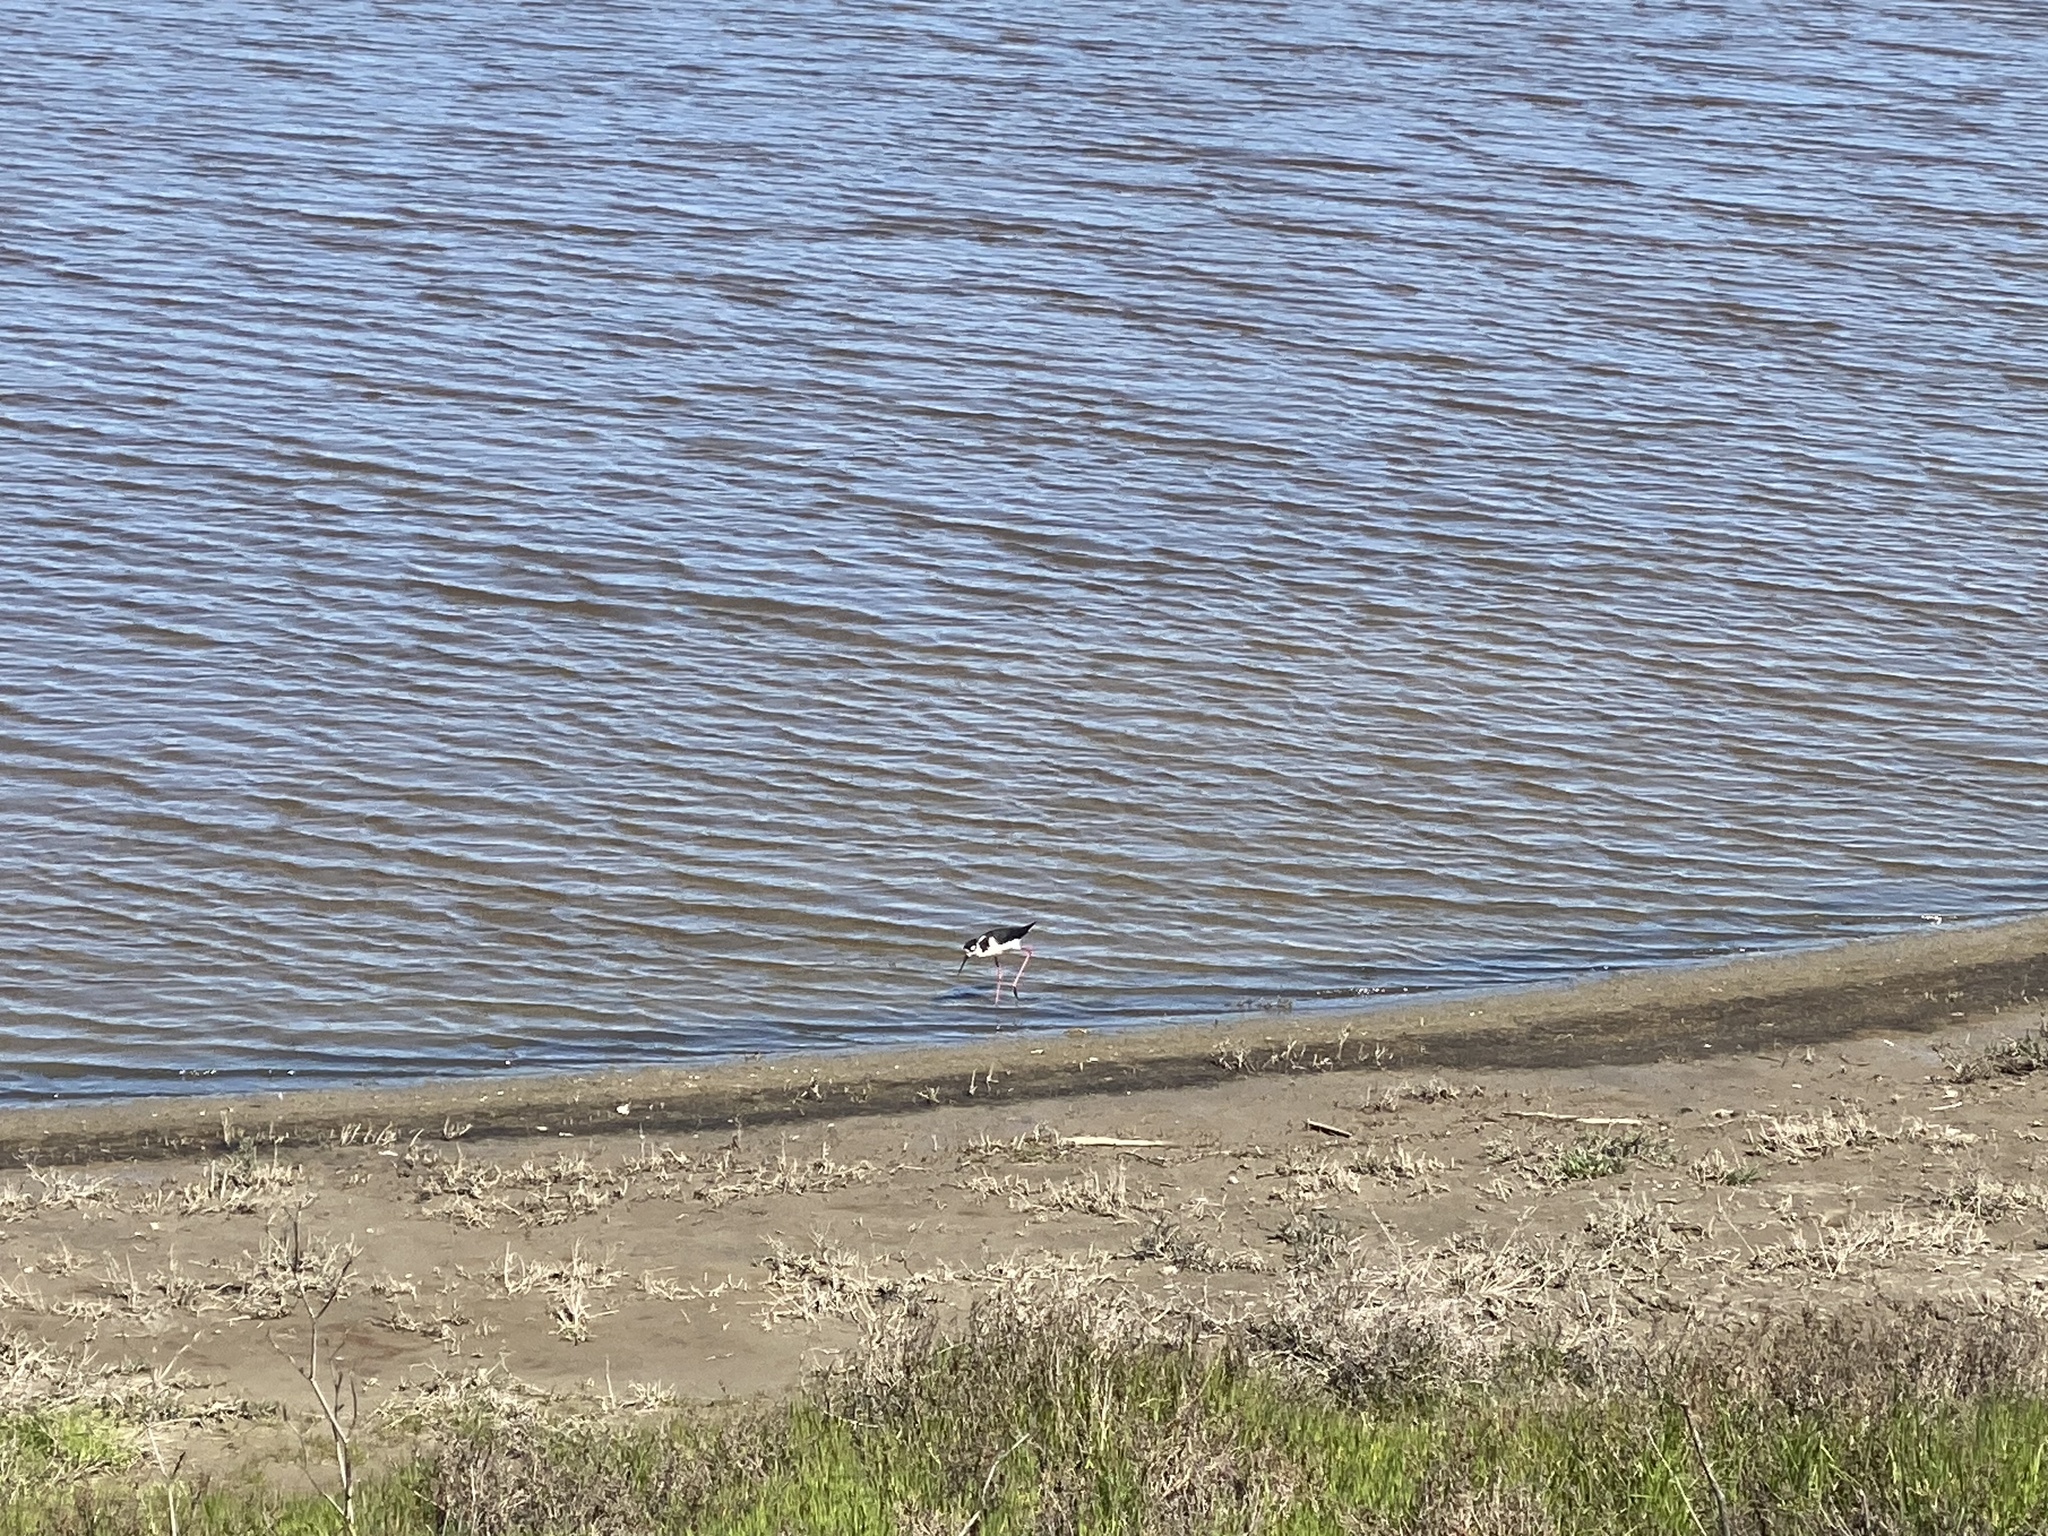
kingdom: Animalia
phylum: Chordata
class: Aves
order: Charadriiformes
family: Recurvirostridae
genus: Himantopus
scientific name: Himantopus mexicanus
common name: Black-necked stilt
